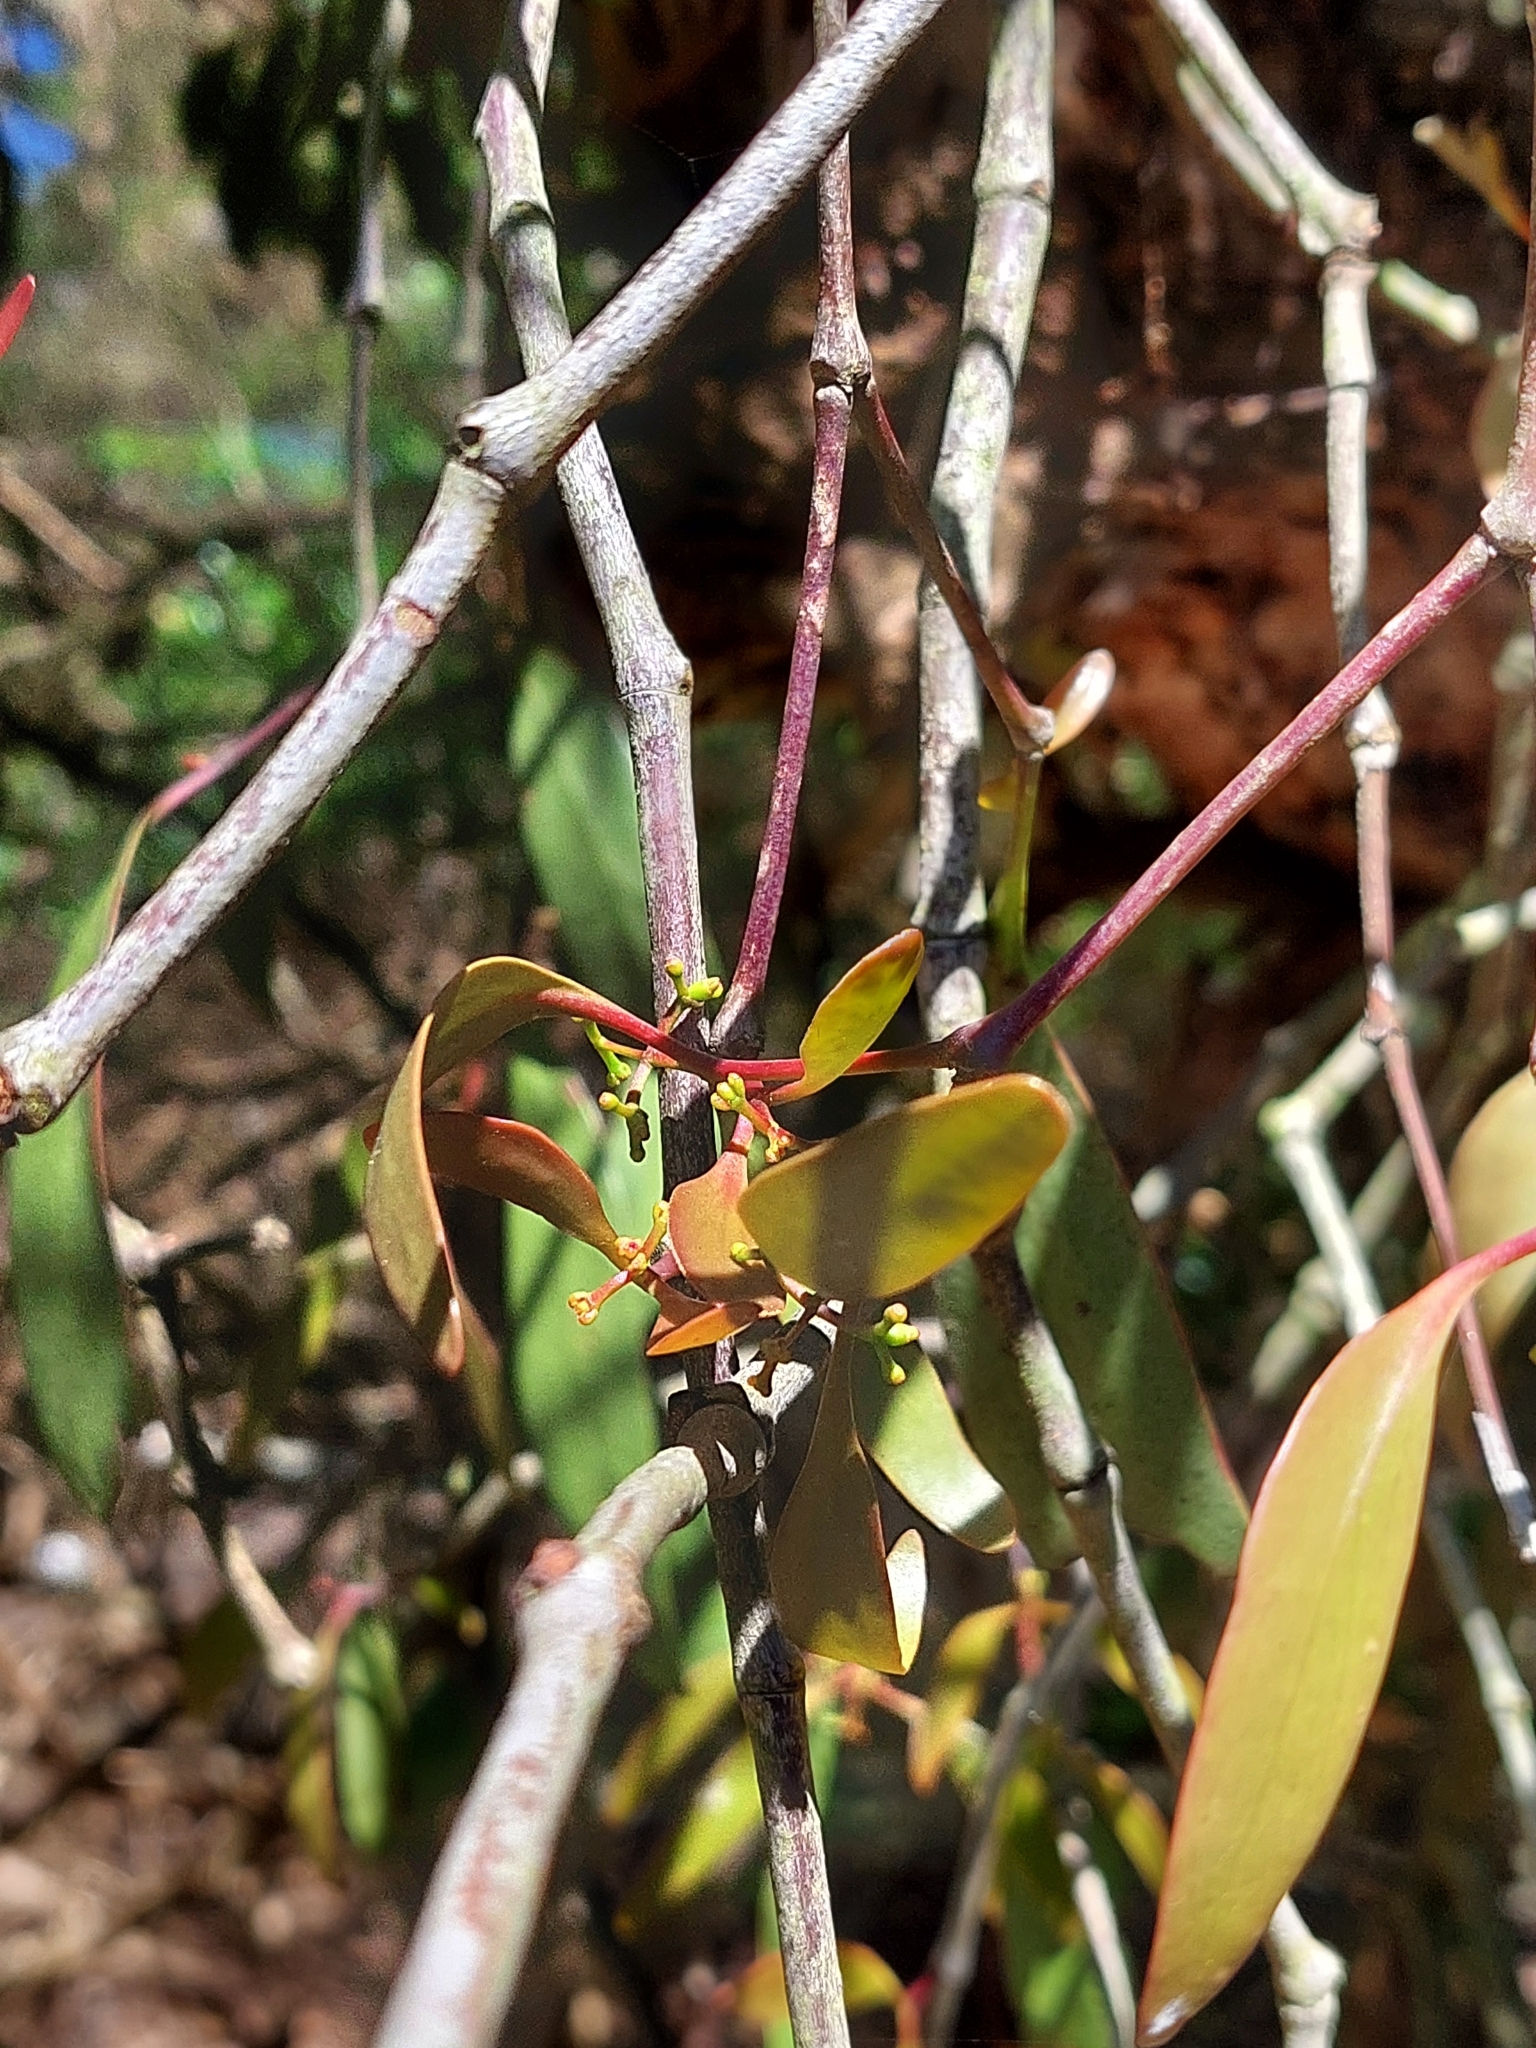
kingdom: Plantae
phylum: Tracheophyta
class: Magnoliopsida
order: Santalales
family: Loranthaceae
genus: Muellerina
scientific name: Muellerina eucalyptoides
